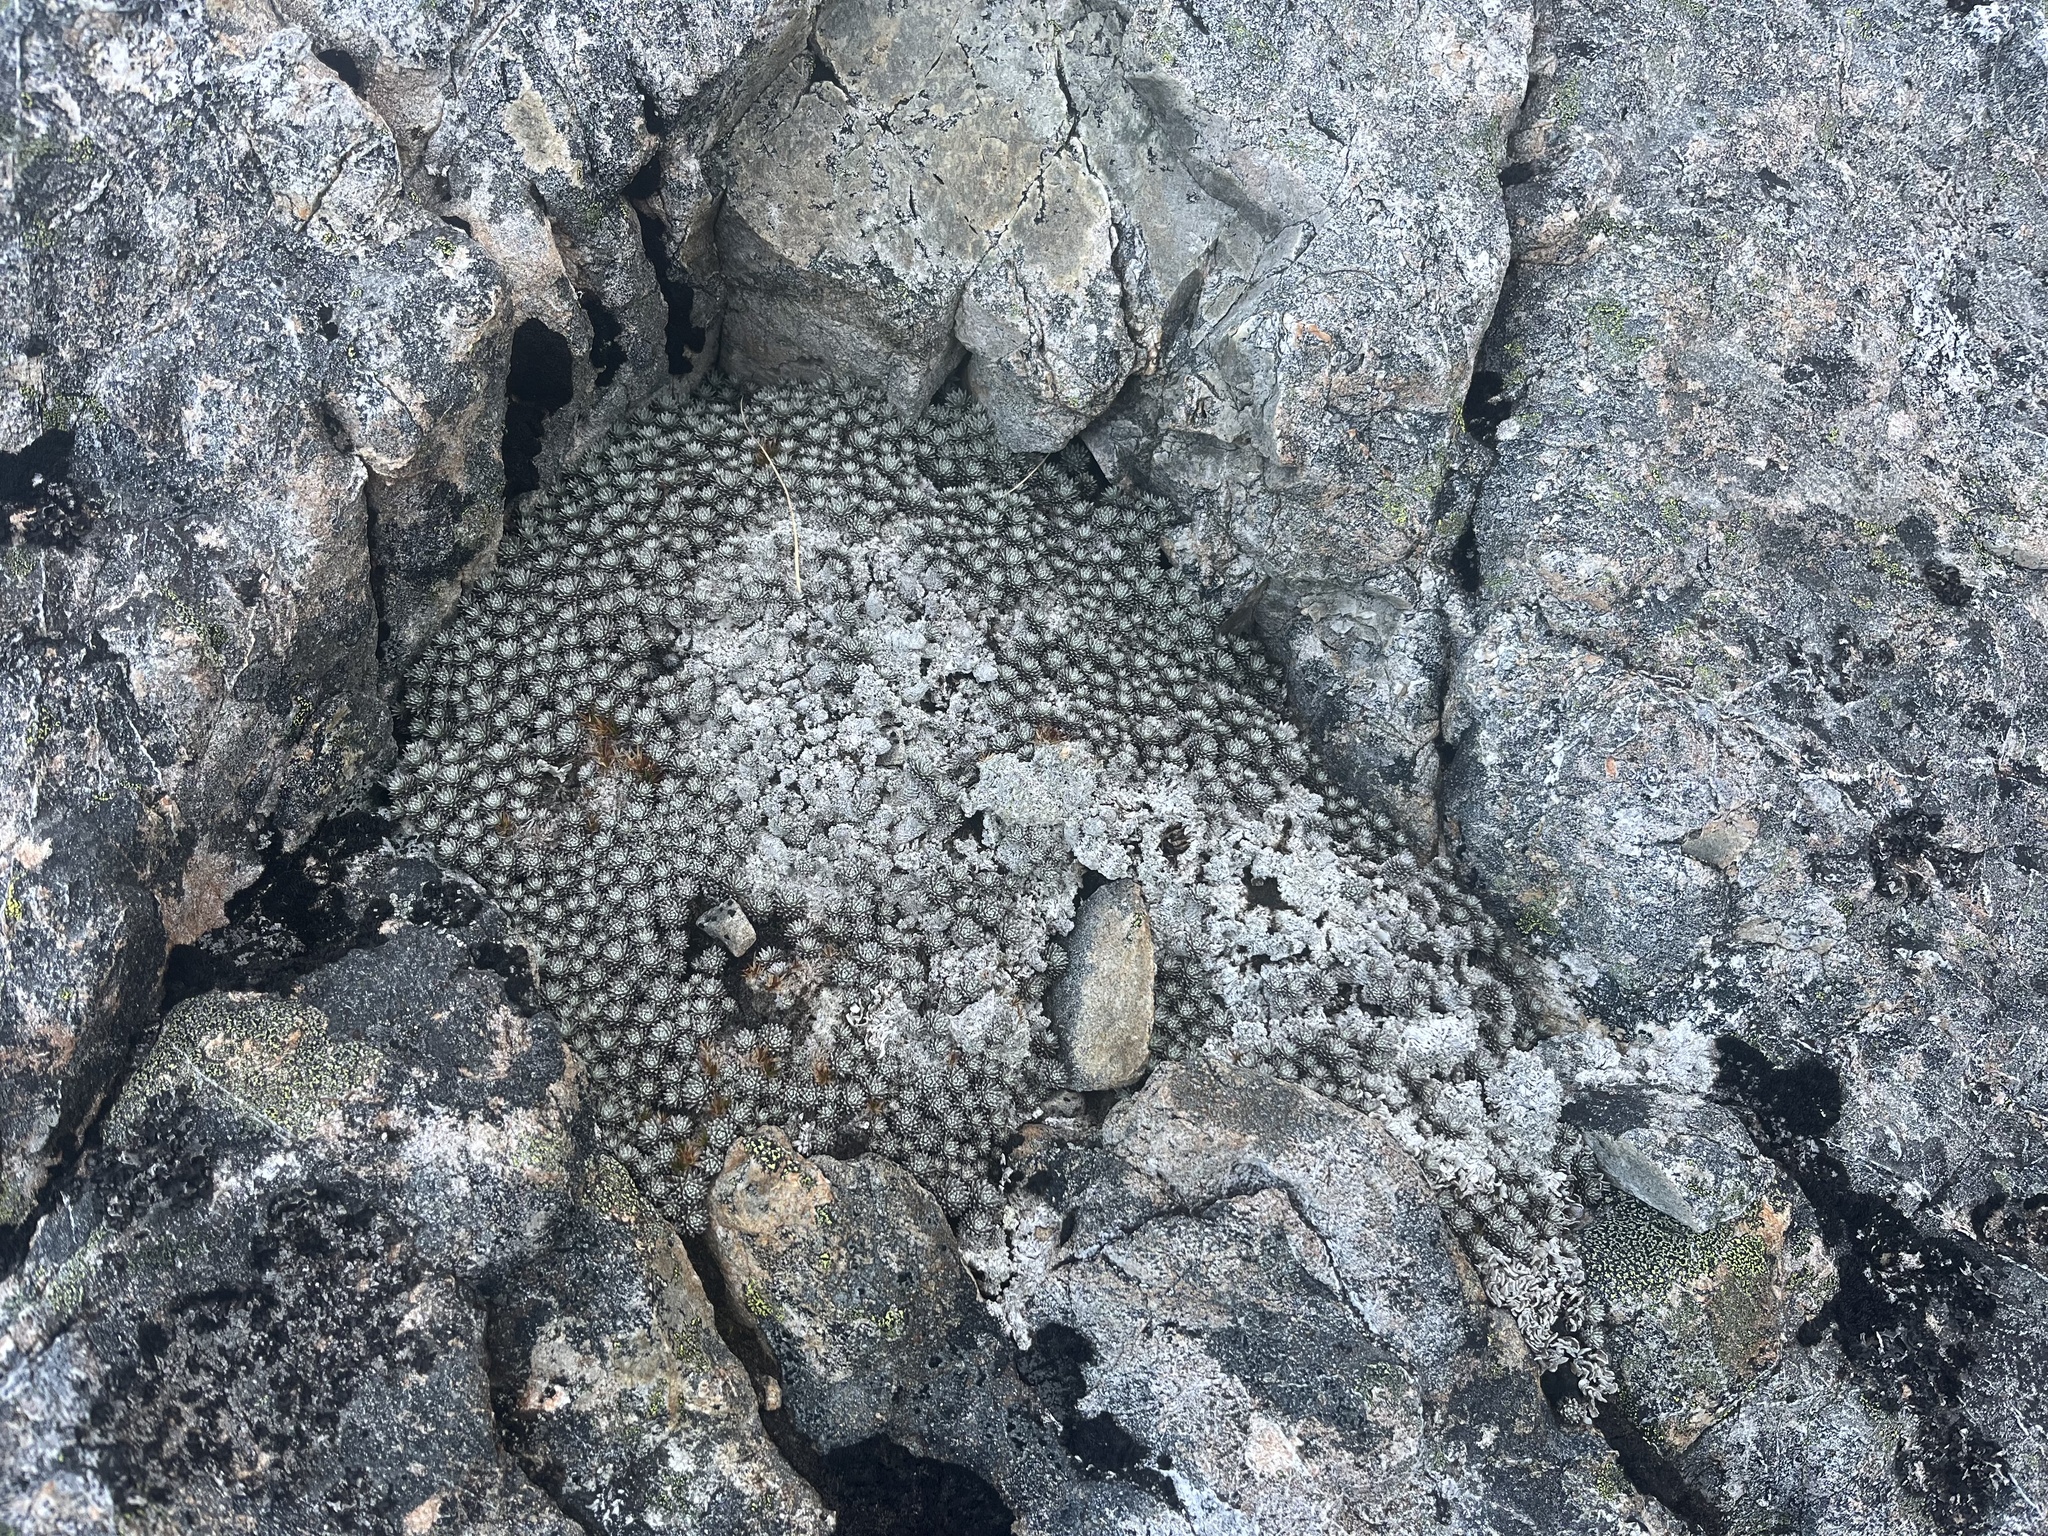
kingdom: Plantae
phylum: Tracheophyta
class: Magnoliopsida
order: Asterales
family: Asteraceae
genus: Raoulia
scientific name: Raoulia mammillaris
